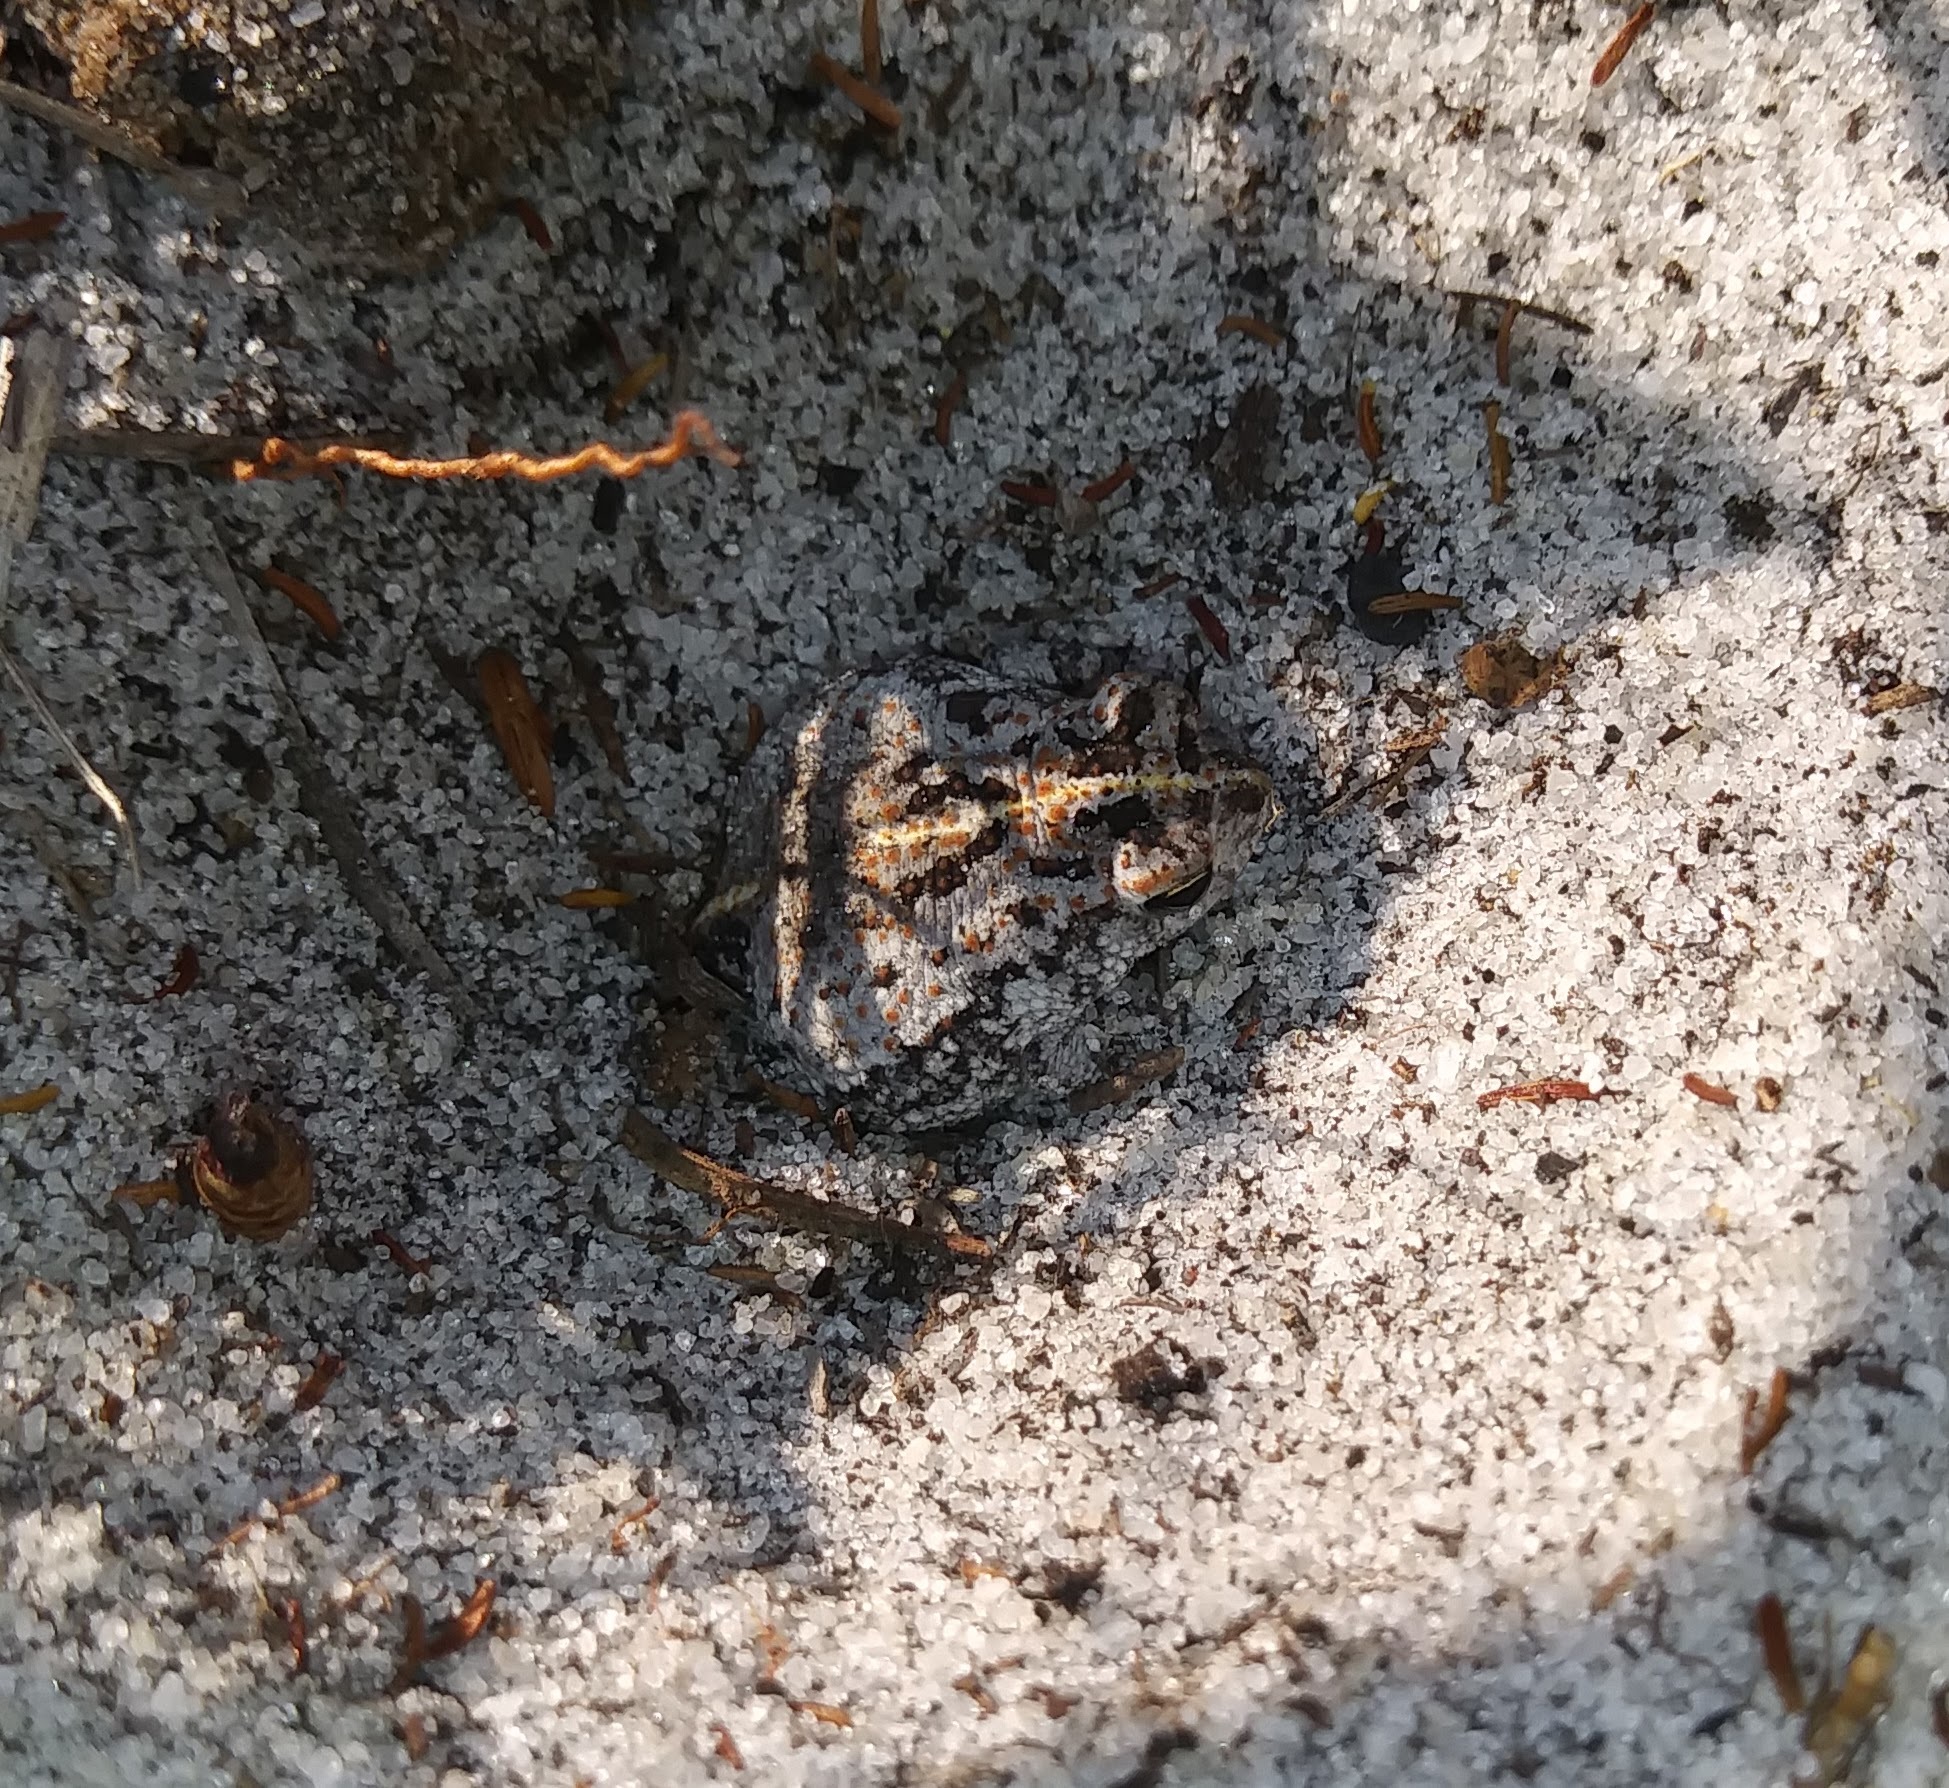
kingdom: Animalia
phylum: Chordata
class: Amphibia
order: Anura
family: Bufonidae
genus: Anaxyrus
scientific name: Anaxyrus quercicus
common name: Oak toad
